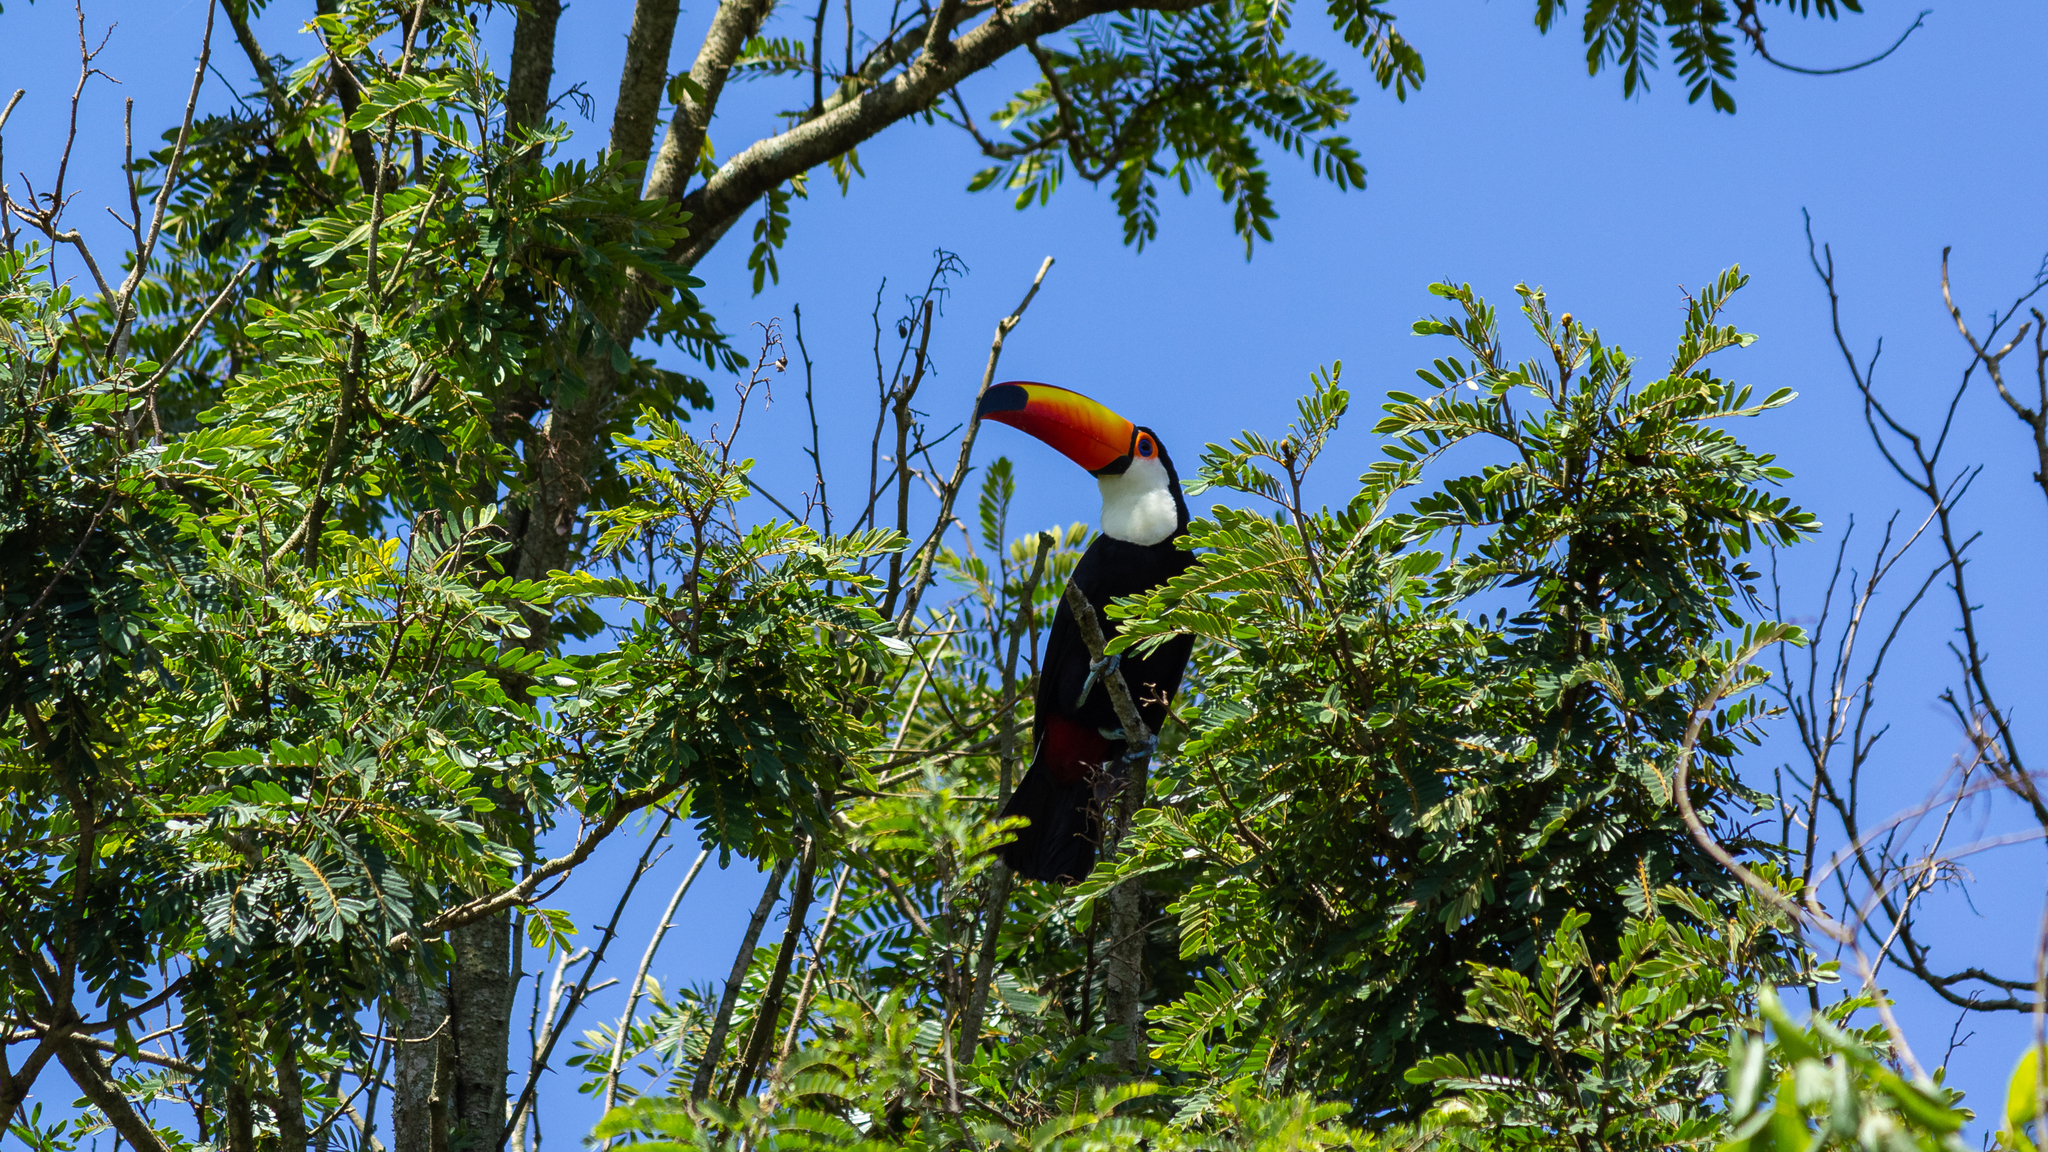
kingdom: Animalia
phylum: Chordata
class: Aves
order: Piciformes
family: Ramphastidae
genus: Ramphastos
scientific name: Ramphastos toco
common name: Toco toucan
